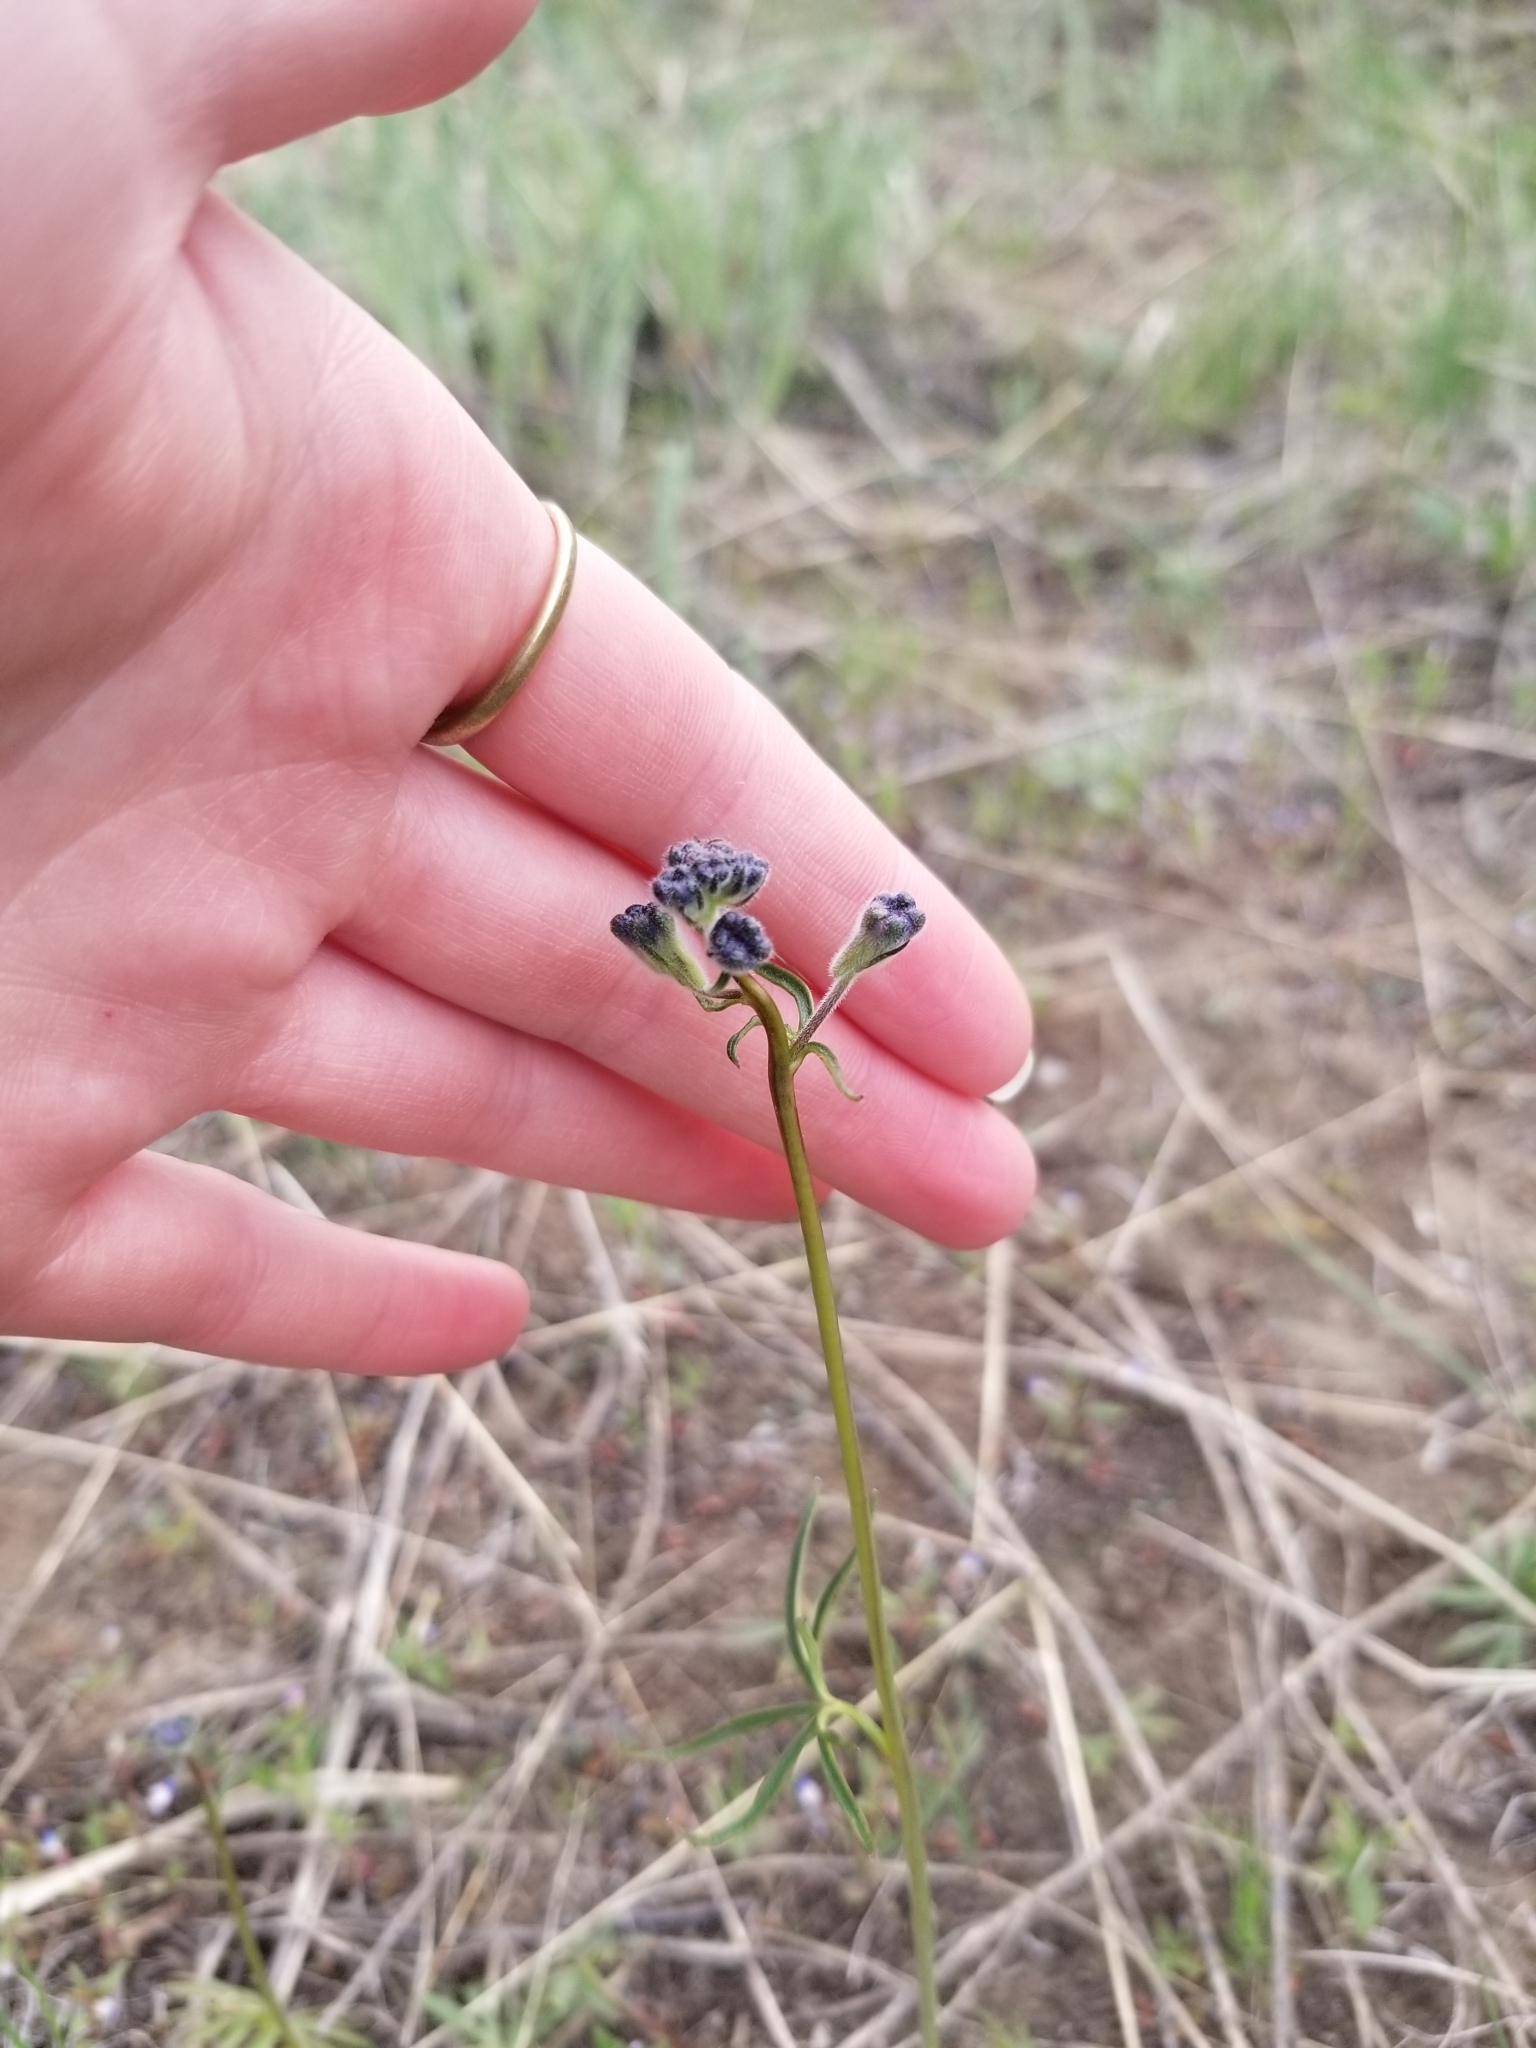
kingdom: Plantae
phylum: Tracheophyta
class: Magnoliopsida
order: Ranunculales
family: Ranunculaceae
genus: Delphinium
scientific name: Delphinium nuttallianum
